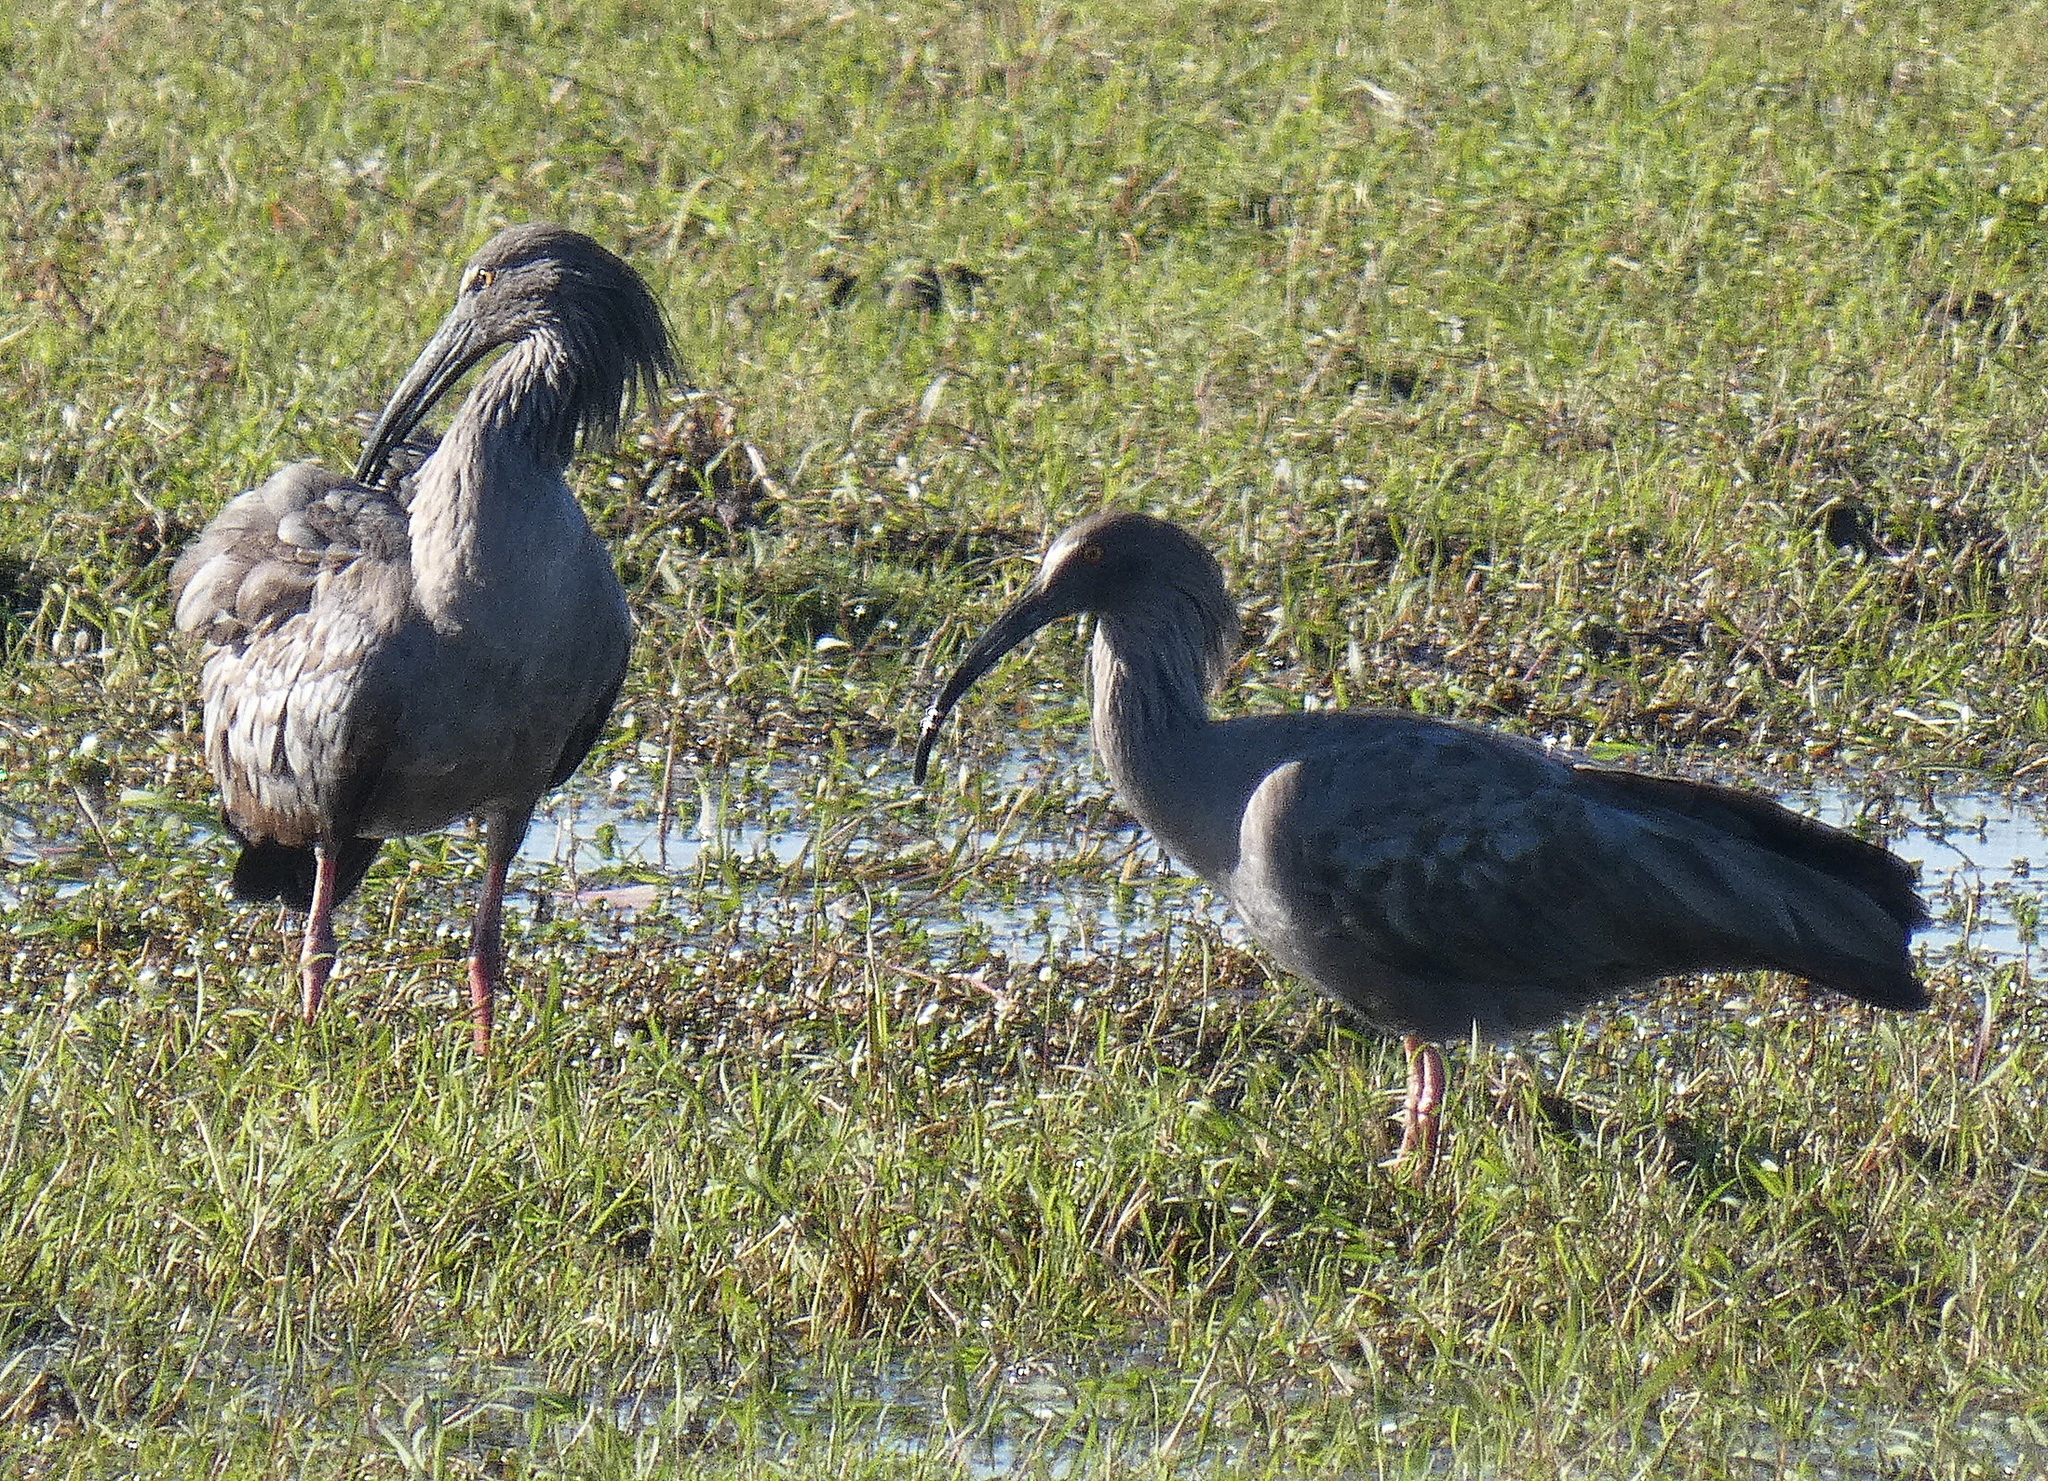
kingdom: Animalia
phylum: Chordata
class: Aves
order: Pelecaniformes
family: Threskiornithidae
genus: Theristicus
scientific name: Theristicus caerulescens
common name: Plumbeous ibis
